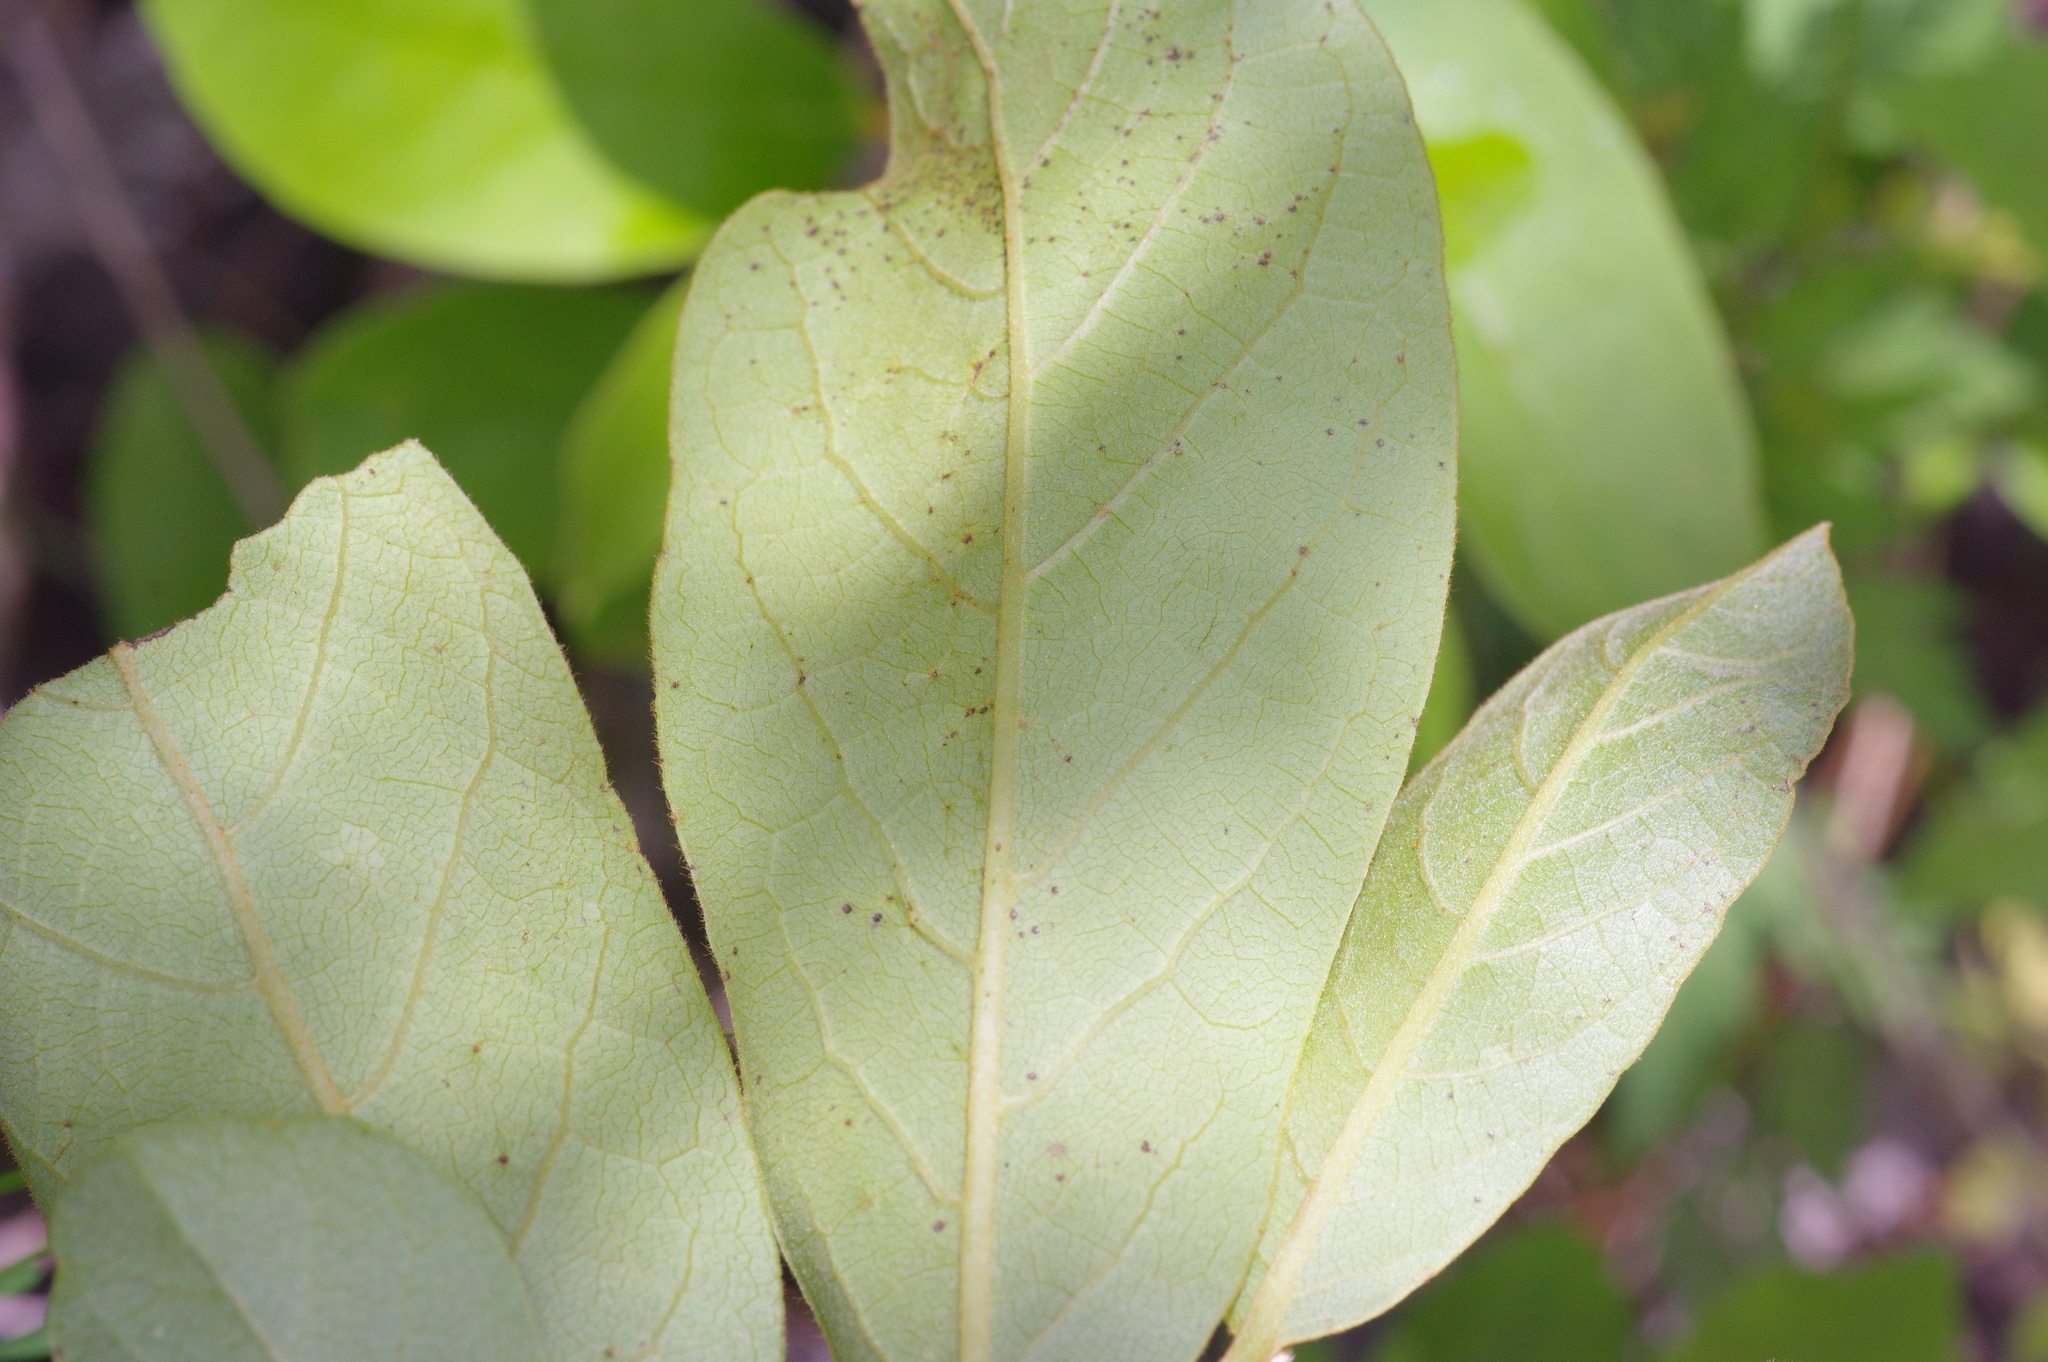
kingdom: Plantae
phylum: Tracheophyta
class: Magnoliopsida
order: Magnoliales
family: Annonaceae
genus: Asimina
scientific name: Asimina parviflora
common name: Dwarf pawpaw
